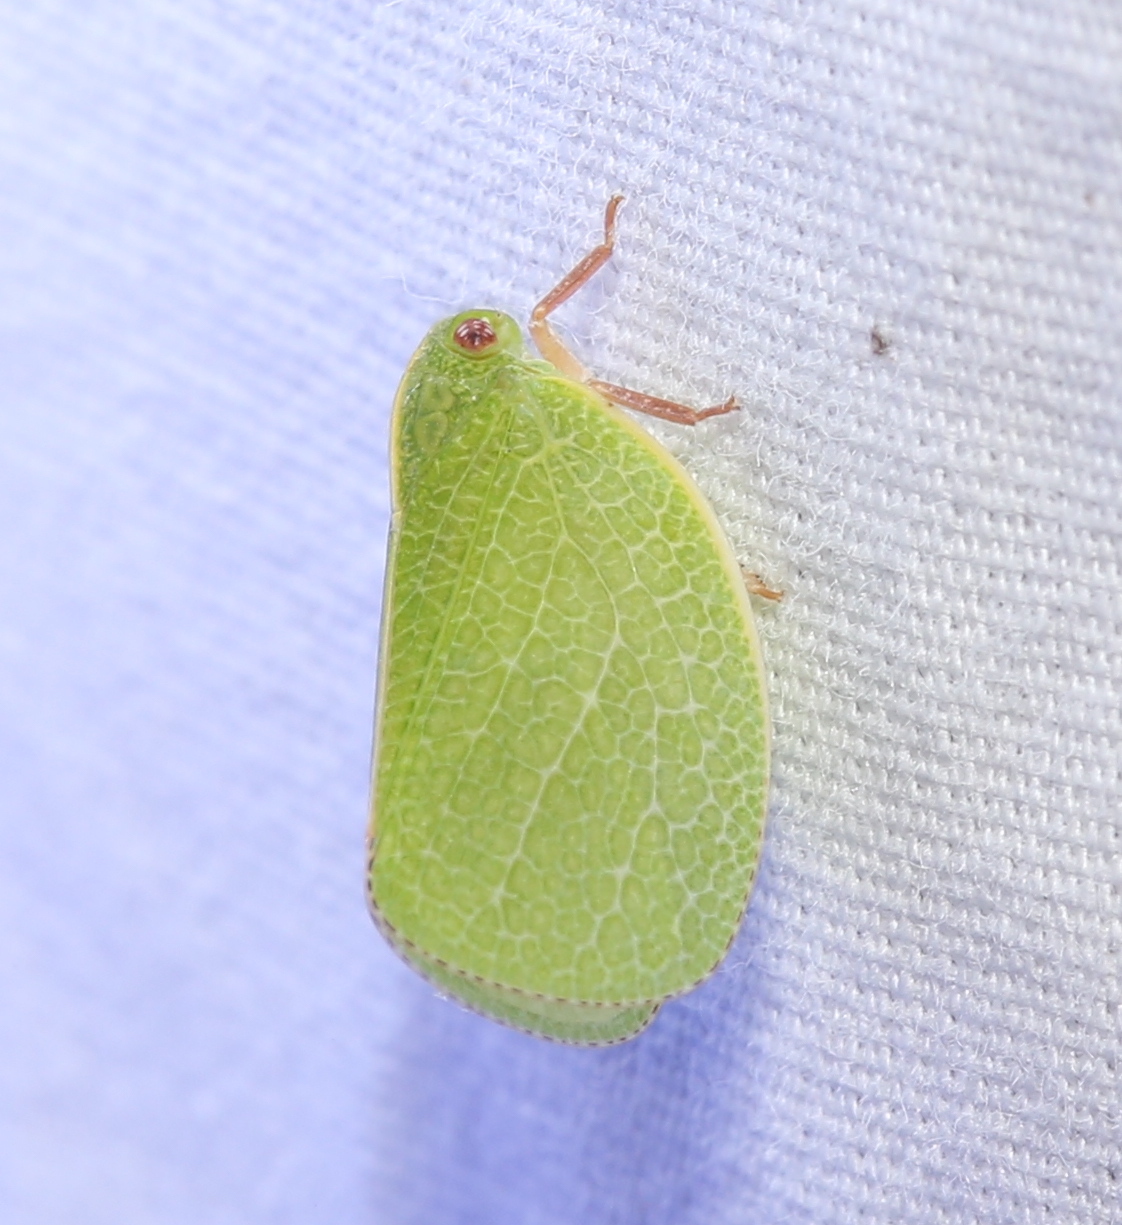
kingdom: Animalia
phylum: Arthropoda
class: Insecta
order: Hemiptera
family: Acanaloniidae
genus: Acanalonia
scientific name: Acanalonia servillei
